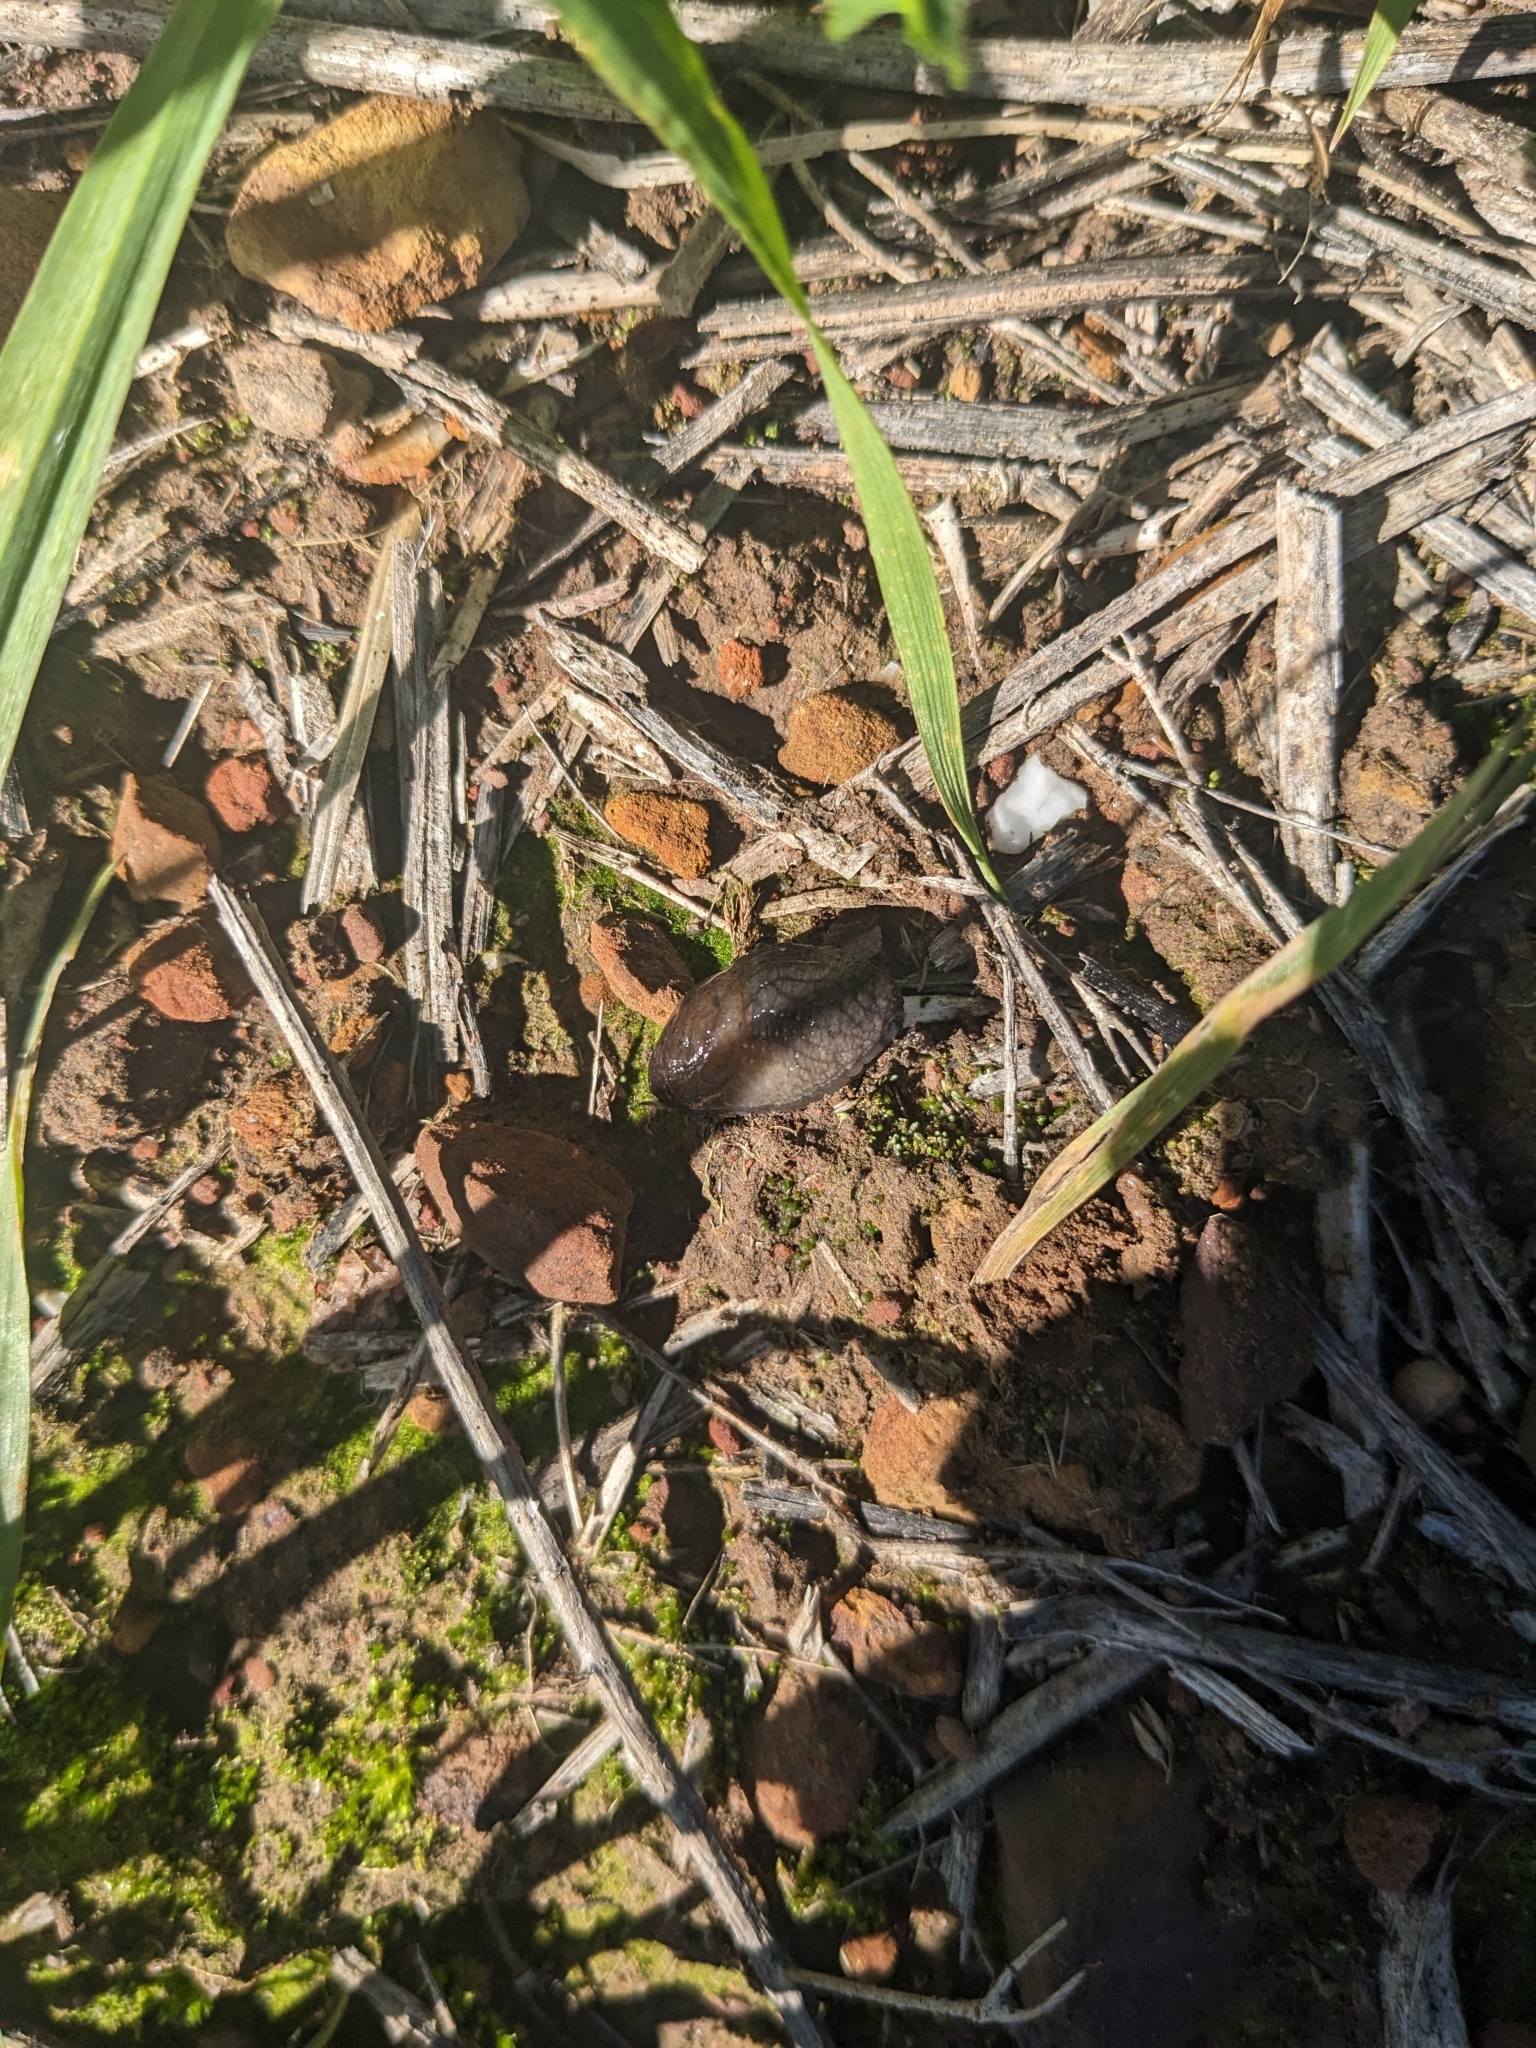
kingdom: Animalia
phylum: Mollusca
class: Gastropoda
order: Stylommatophora
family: Milacidae
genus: Milax
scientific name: Milax gagates
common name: Greenhouse slug
